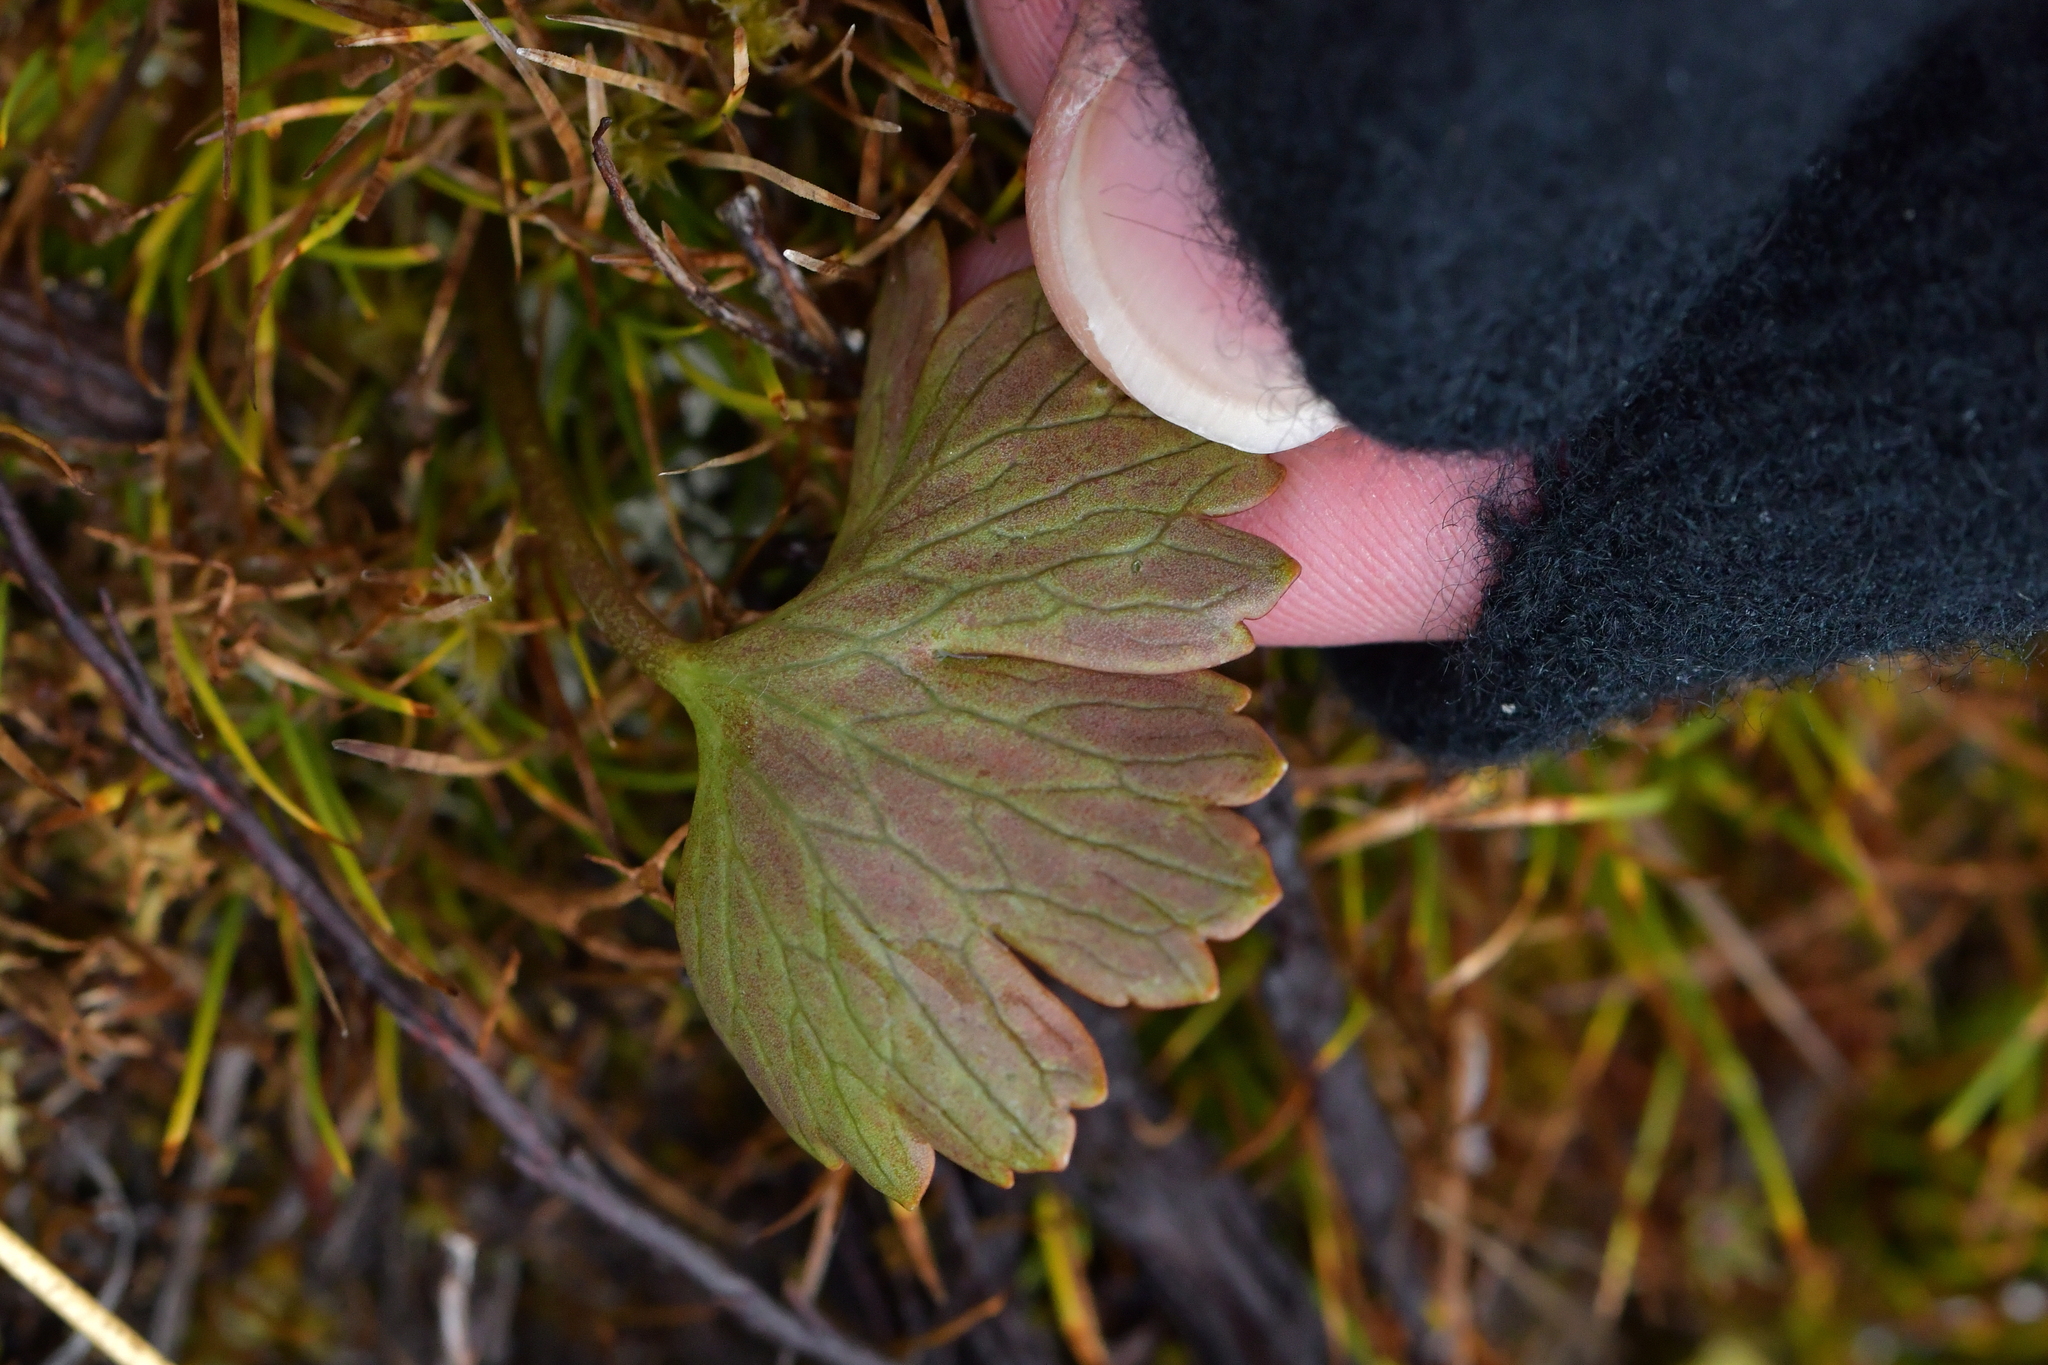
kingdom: Plantae
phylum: Tracheophyta
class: Magnoliopsida
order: Ranunculales
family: Ranunculaceae
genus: Ranunculus
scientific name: Ranunculus verticillatus
